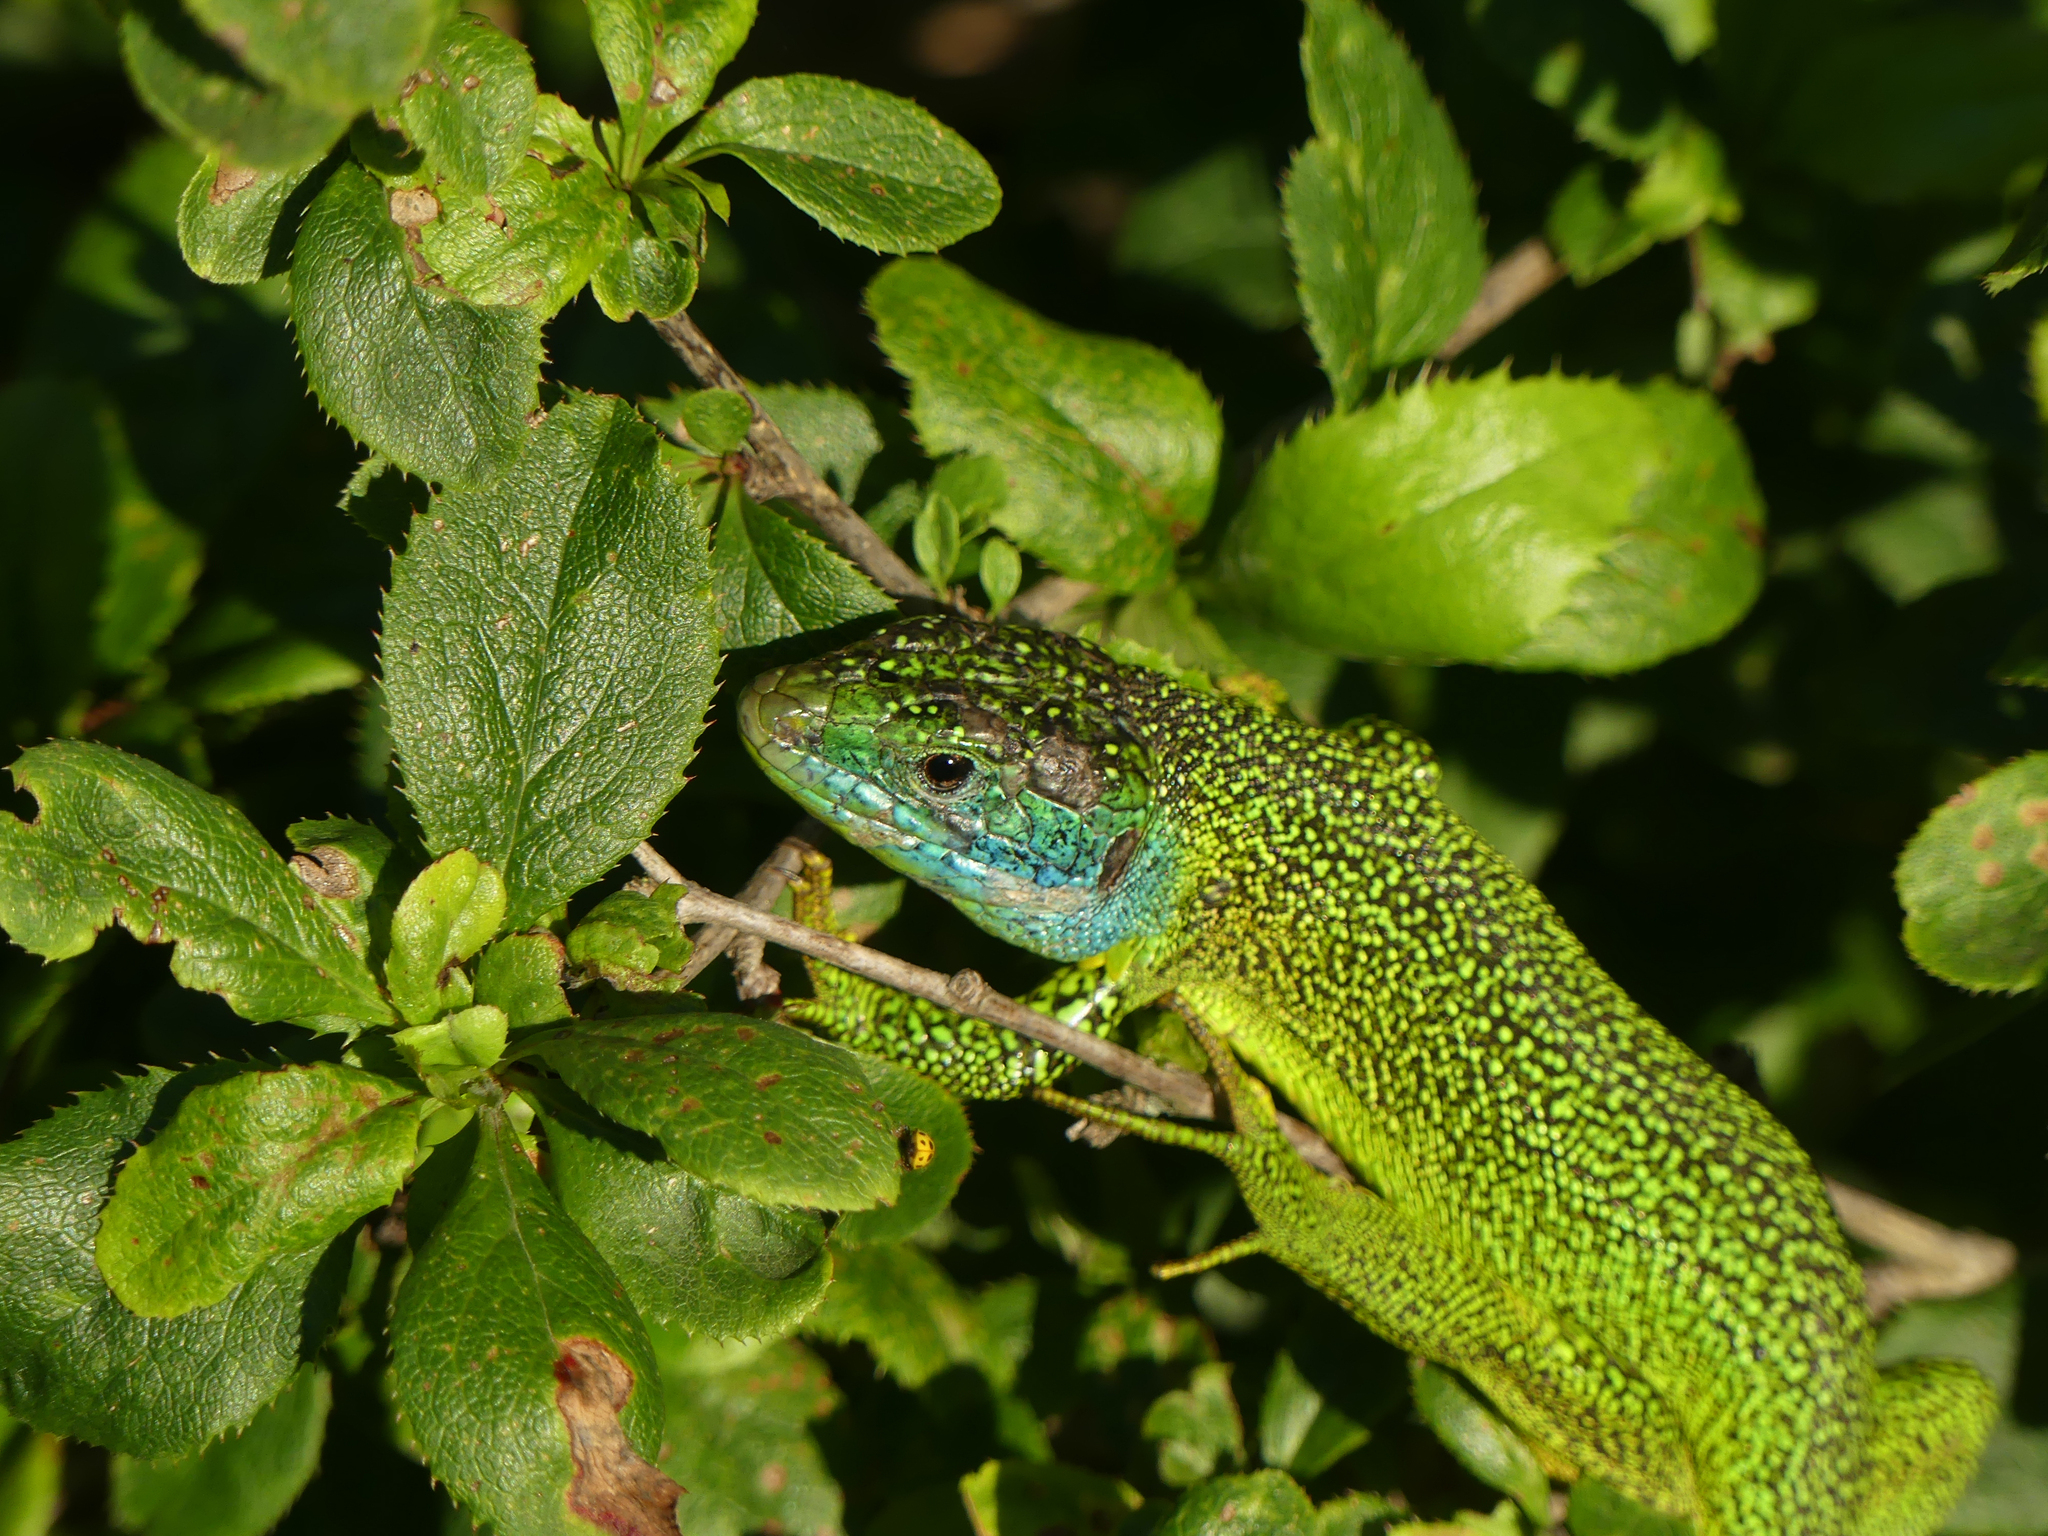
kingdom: Animalia
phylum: Chordata
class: Squamata
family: Lacertidae
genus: Lacerta
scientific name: Lacerta bilineata
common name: Western green lizard
